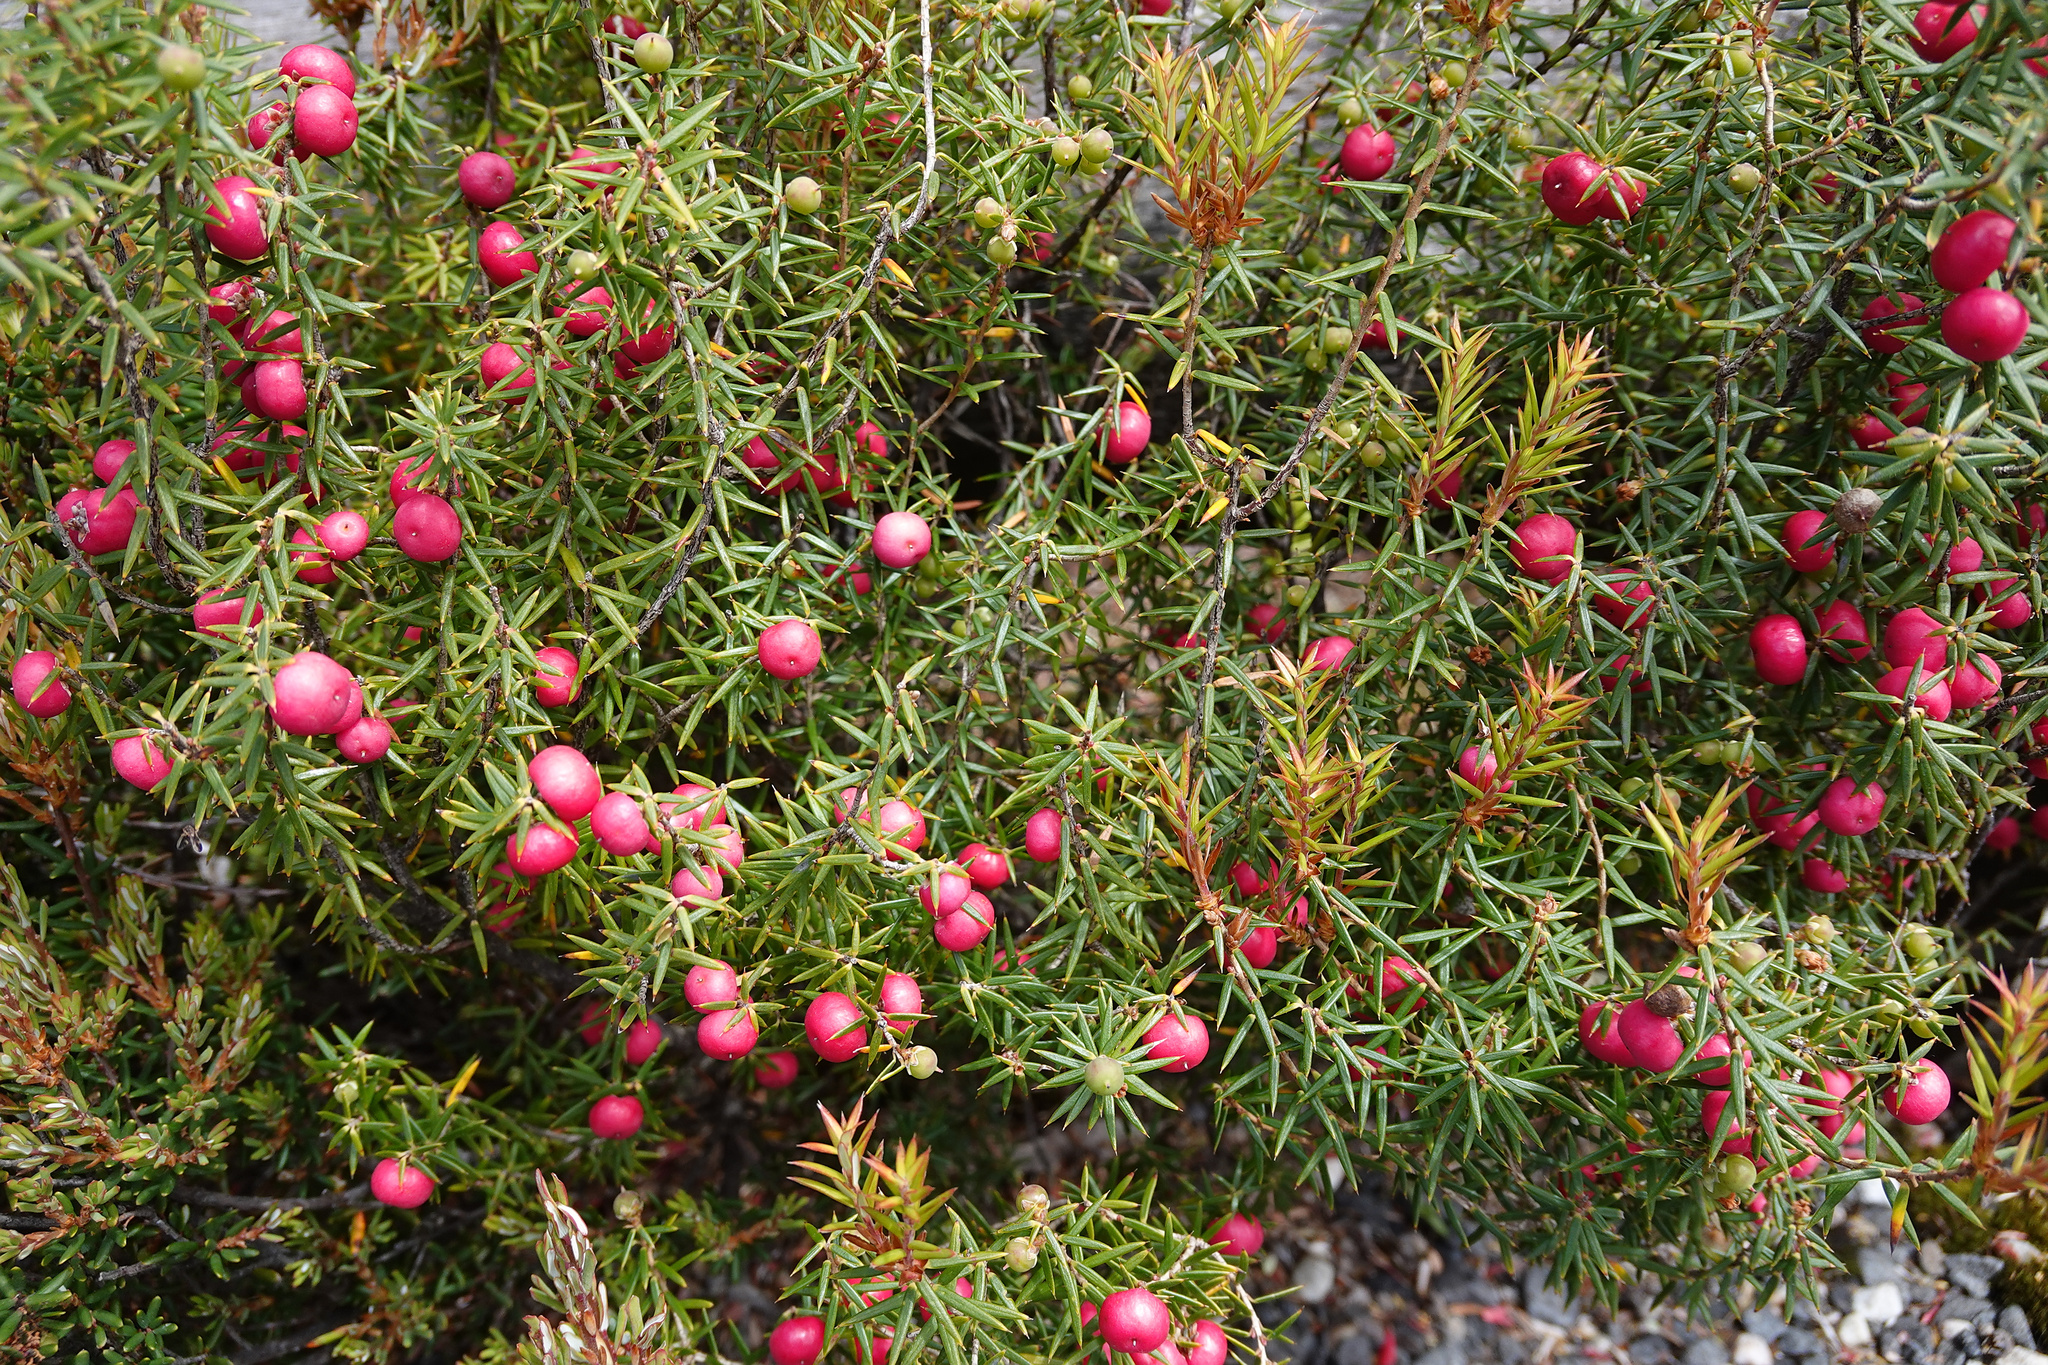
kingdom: Plantae
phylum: Tracheophyta
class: Magnoliopsida
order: Ericales
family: Ericaceae
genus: Leptecophylla
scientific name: Leptecophylla parvifolia
